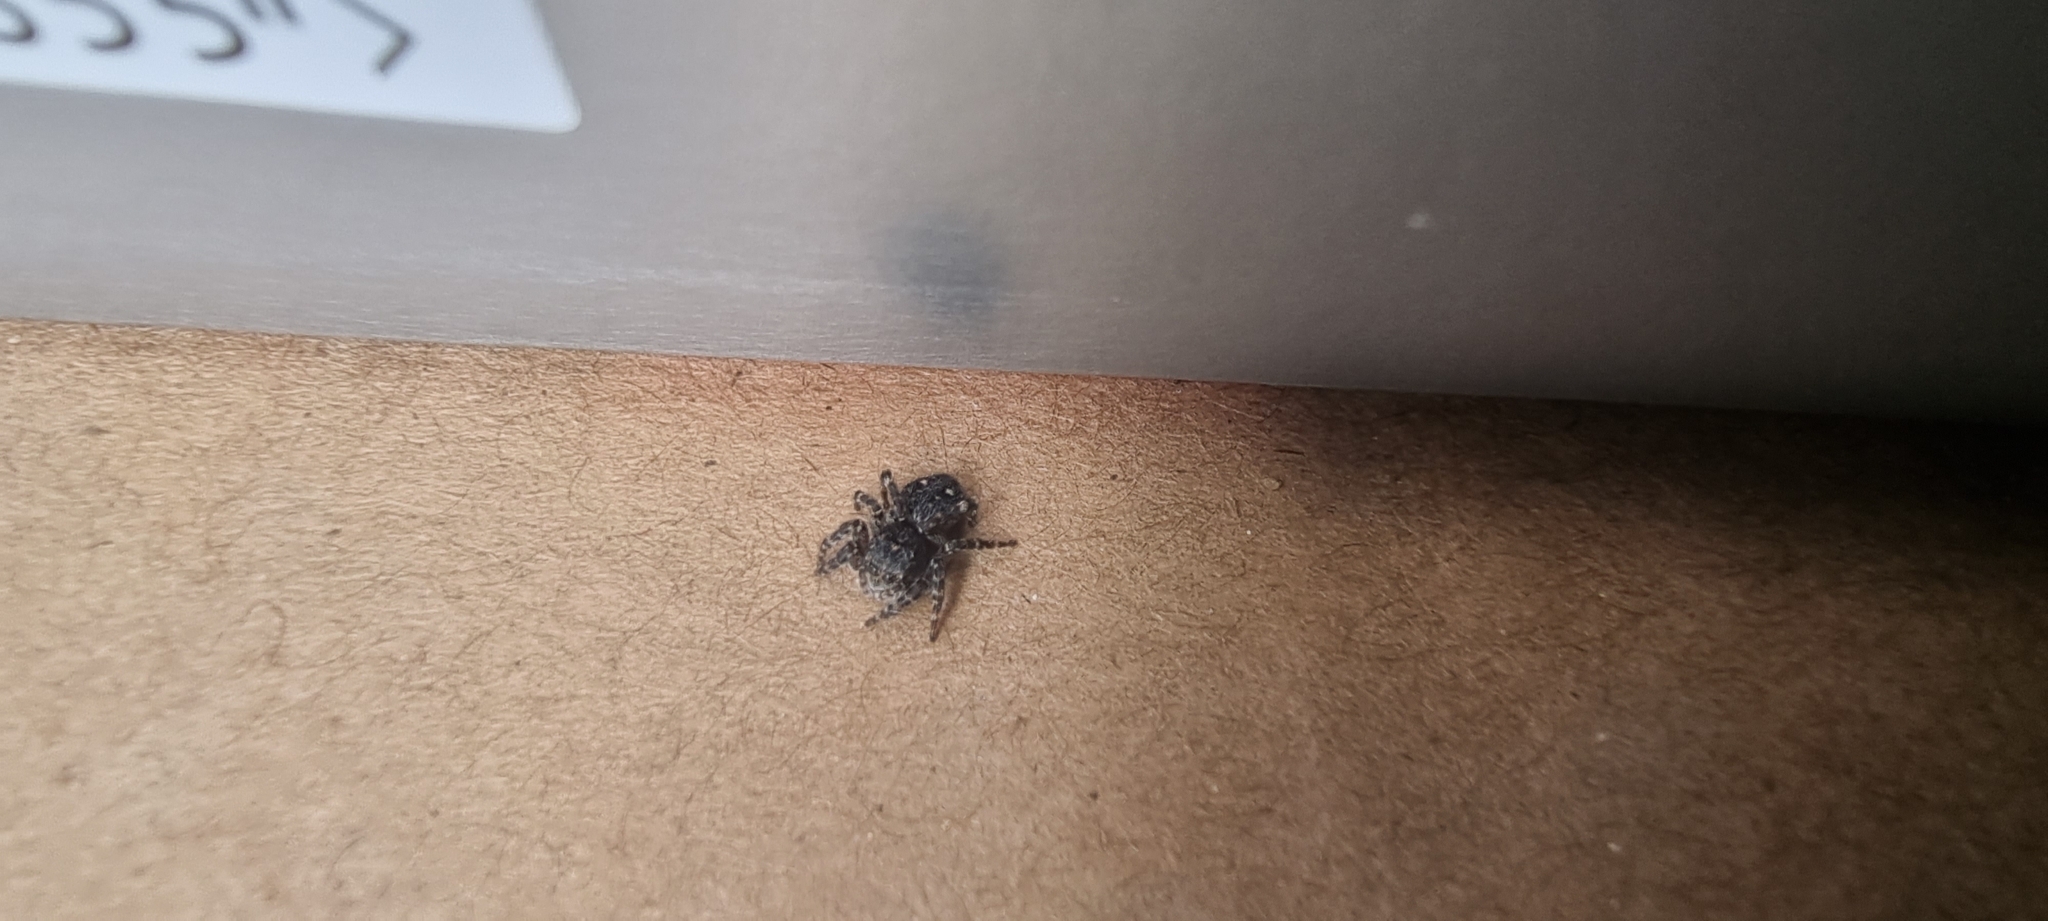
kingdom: Animalia
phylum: Arthropoda
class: Arachnida
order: Araneae
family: Salticidae
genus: Attulus
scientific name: Attulus pubescens
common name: Jumping spider
